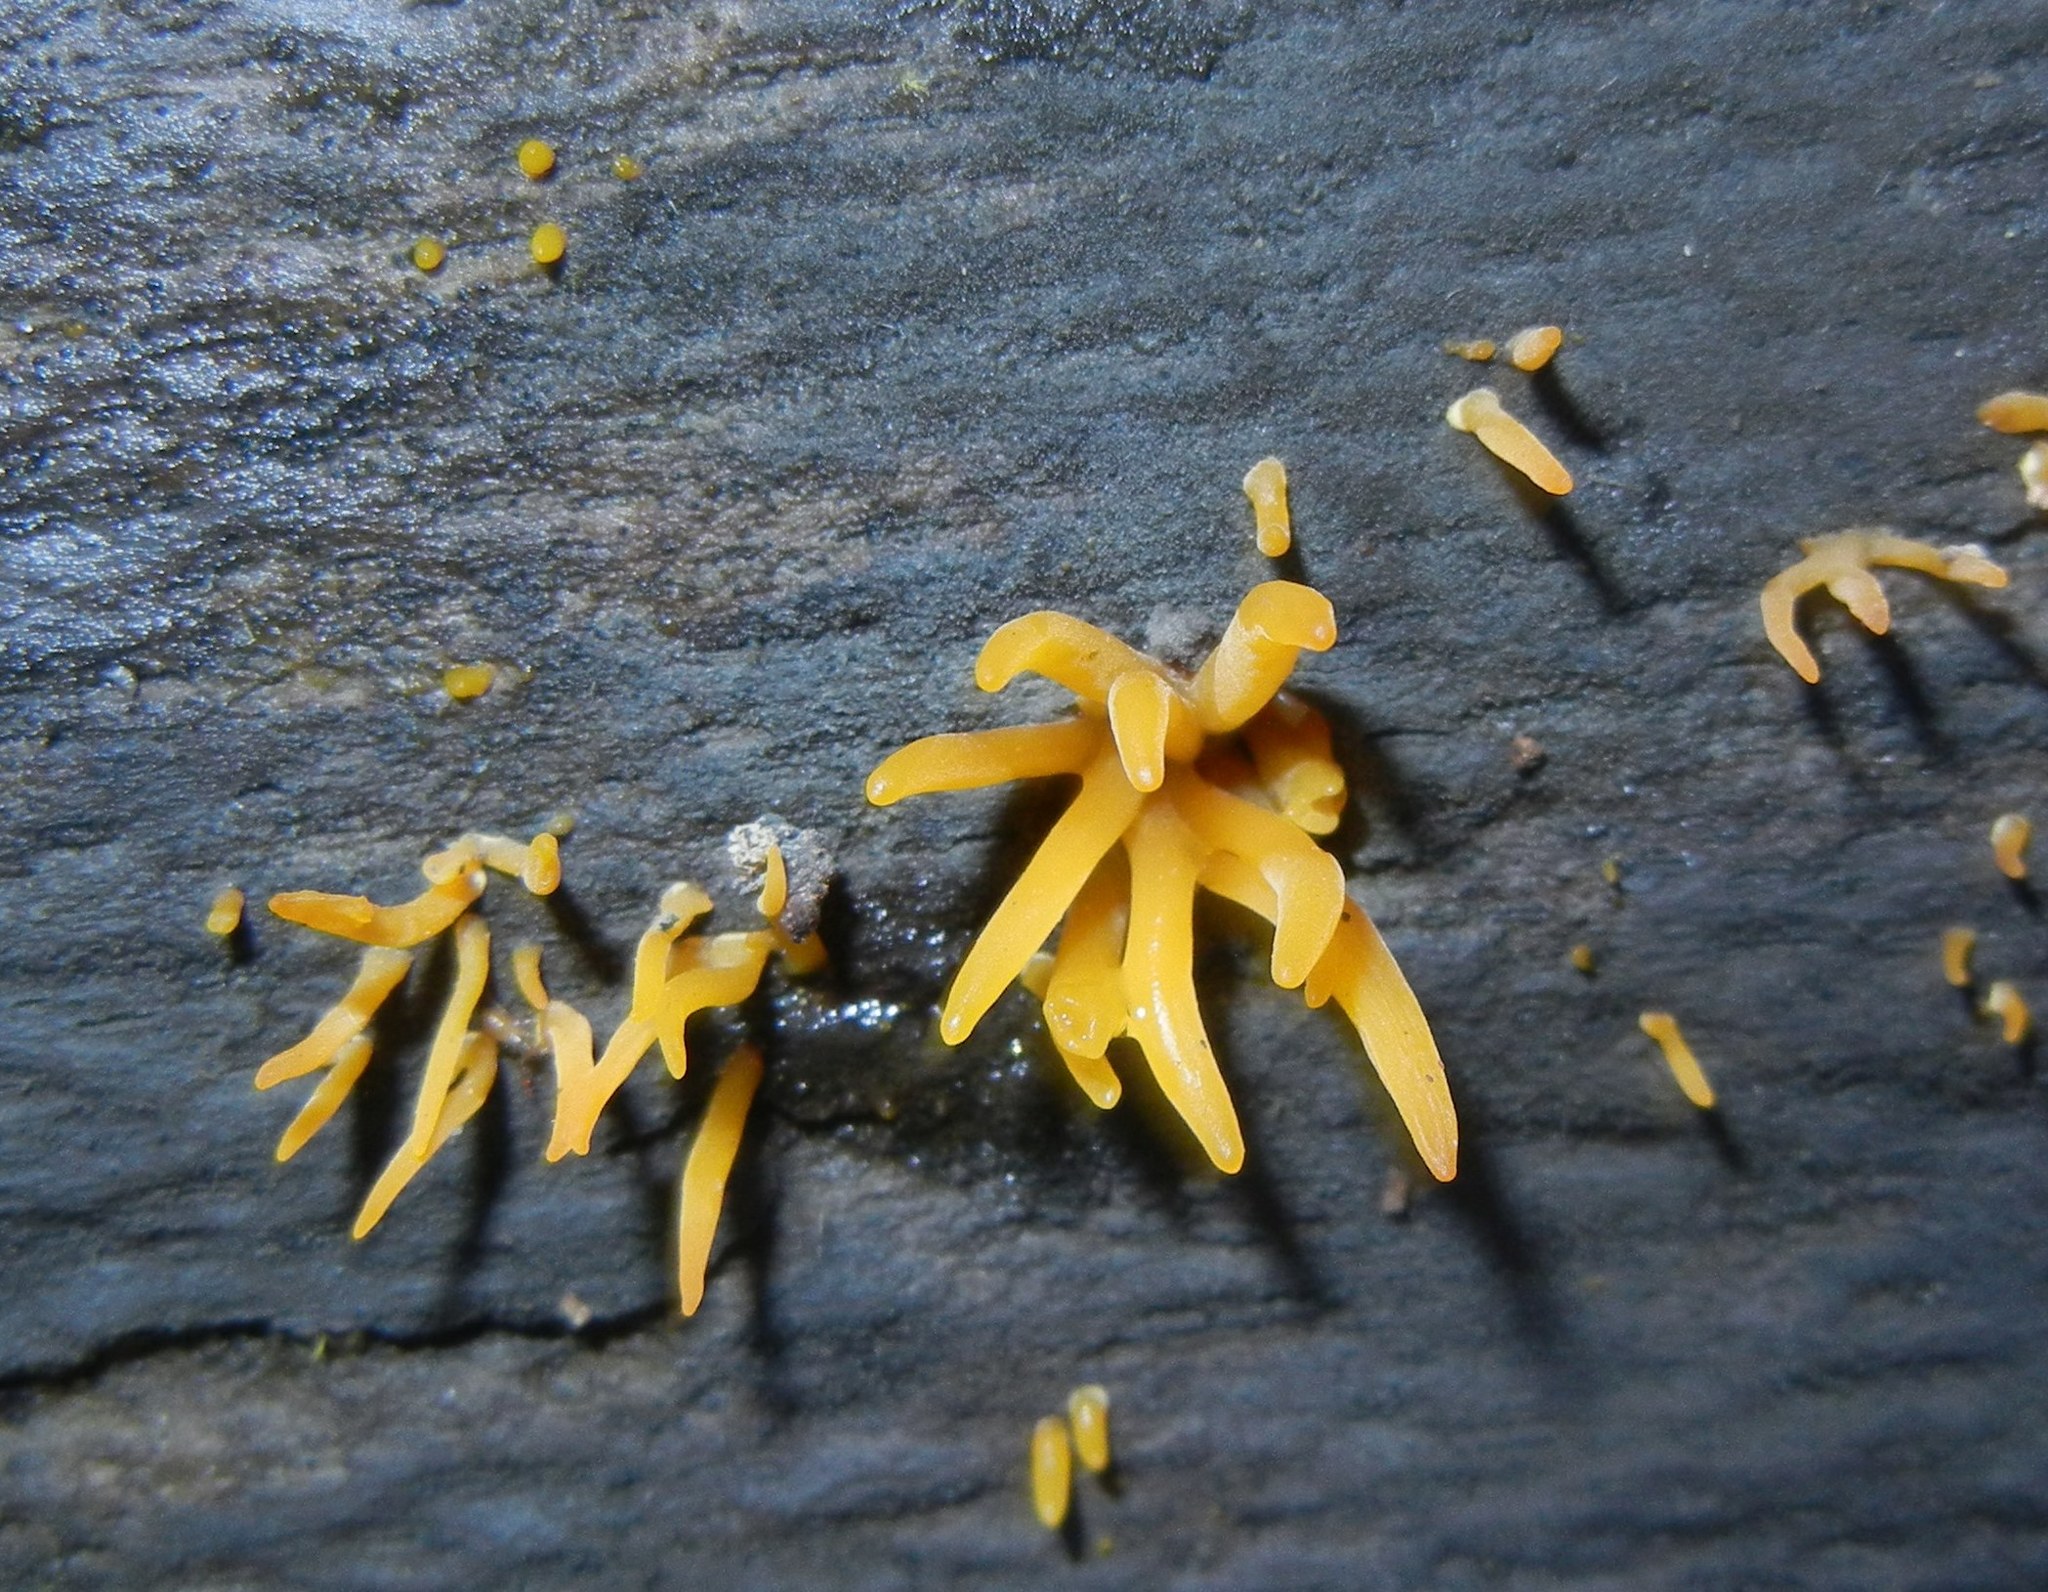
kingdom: Fungi
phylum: Basidiomycota
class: Dacrymycetes
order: Dacrymycetales
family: Dacrymycetaceae
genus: Calocera
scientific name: Calocera cornea
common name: Small stagshorn
